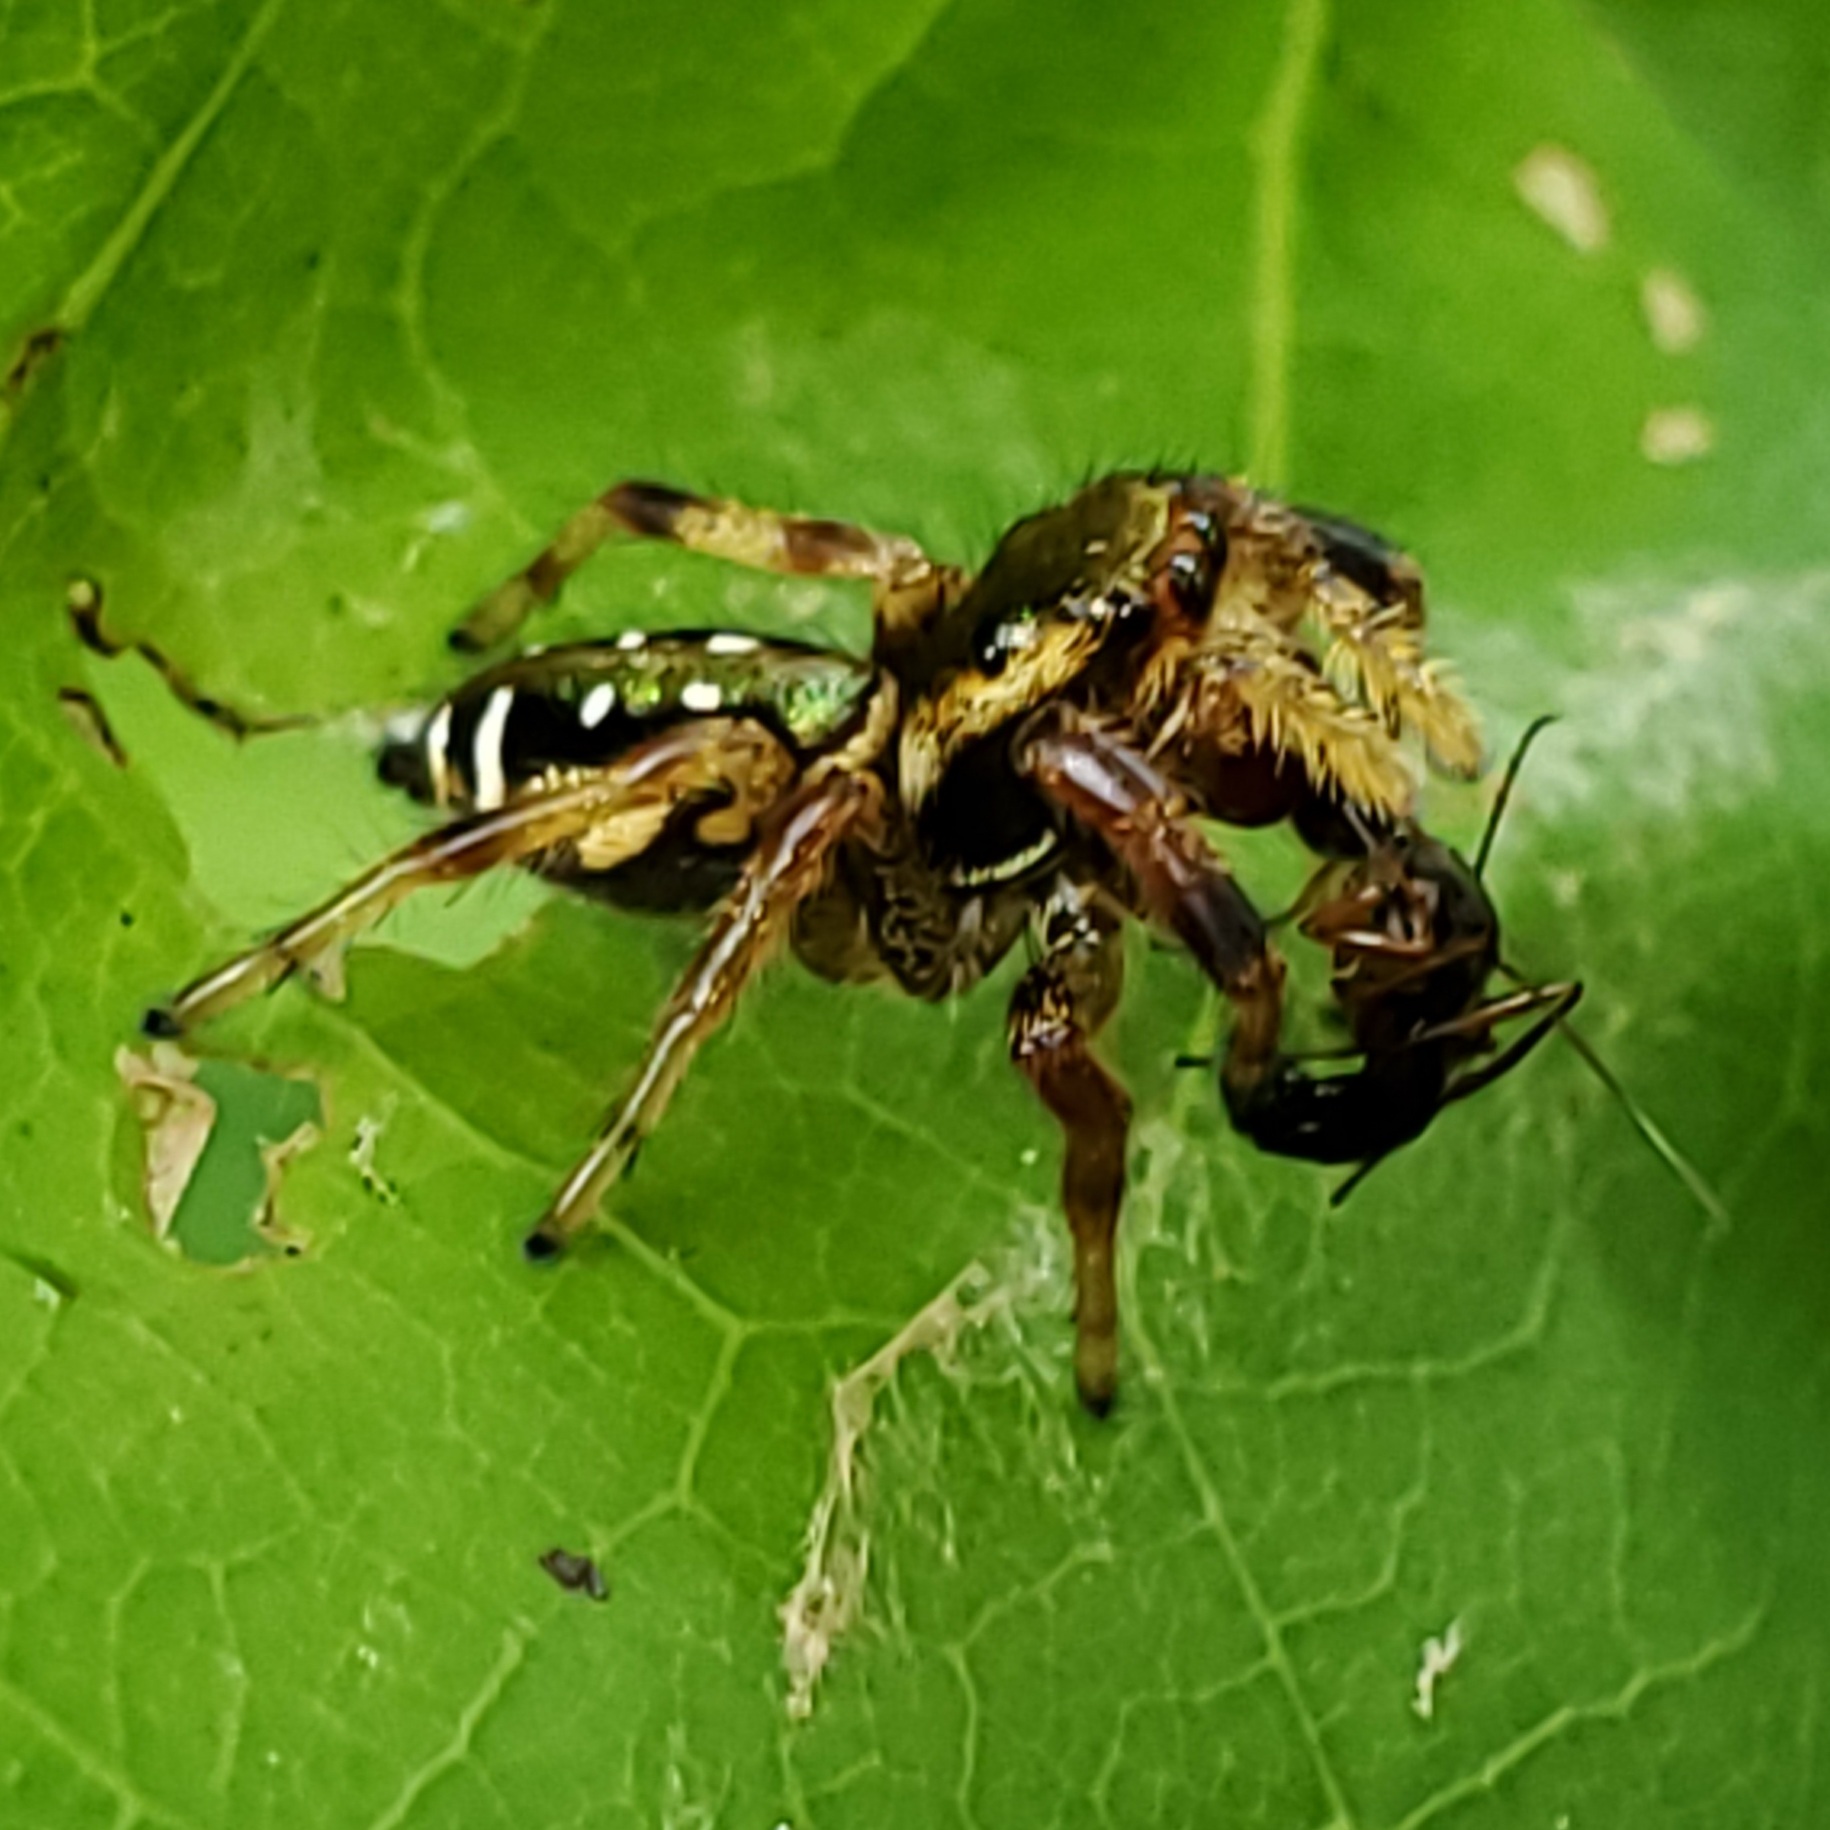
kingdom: Animalia
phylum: Arthropoda
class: Arachnida
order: Araneae
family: Salticidae
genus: Paraphidippus
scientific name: Paraphidippus aurantius
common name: Jumping spiders
